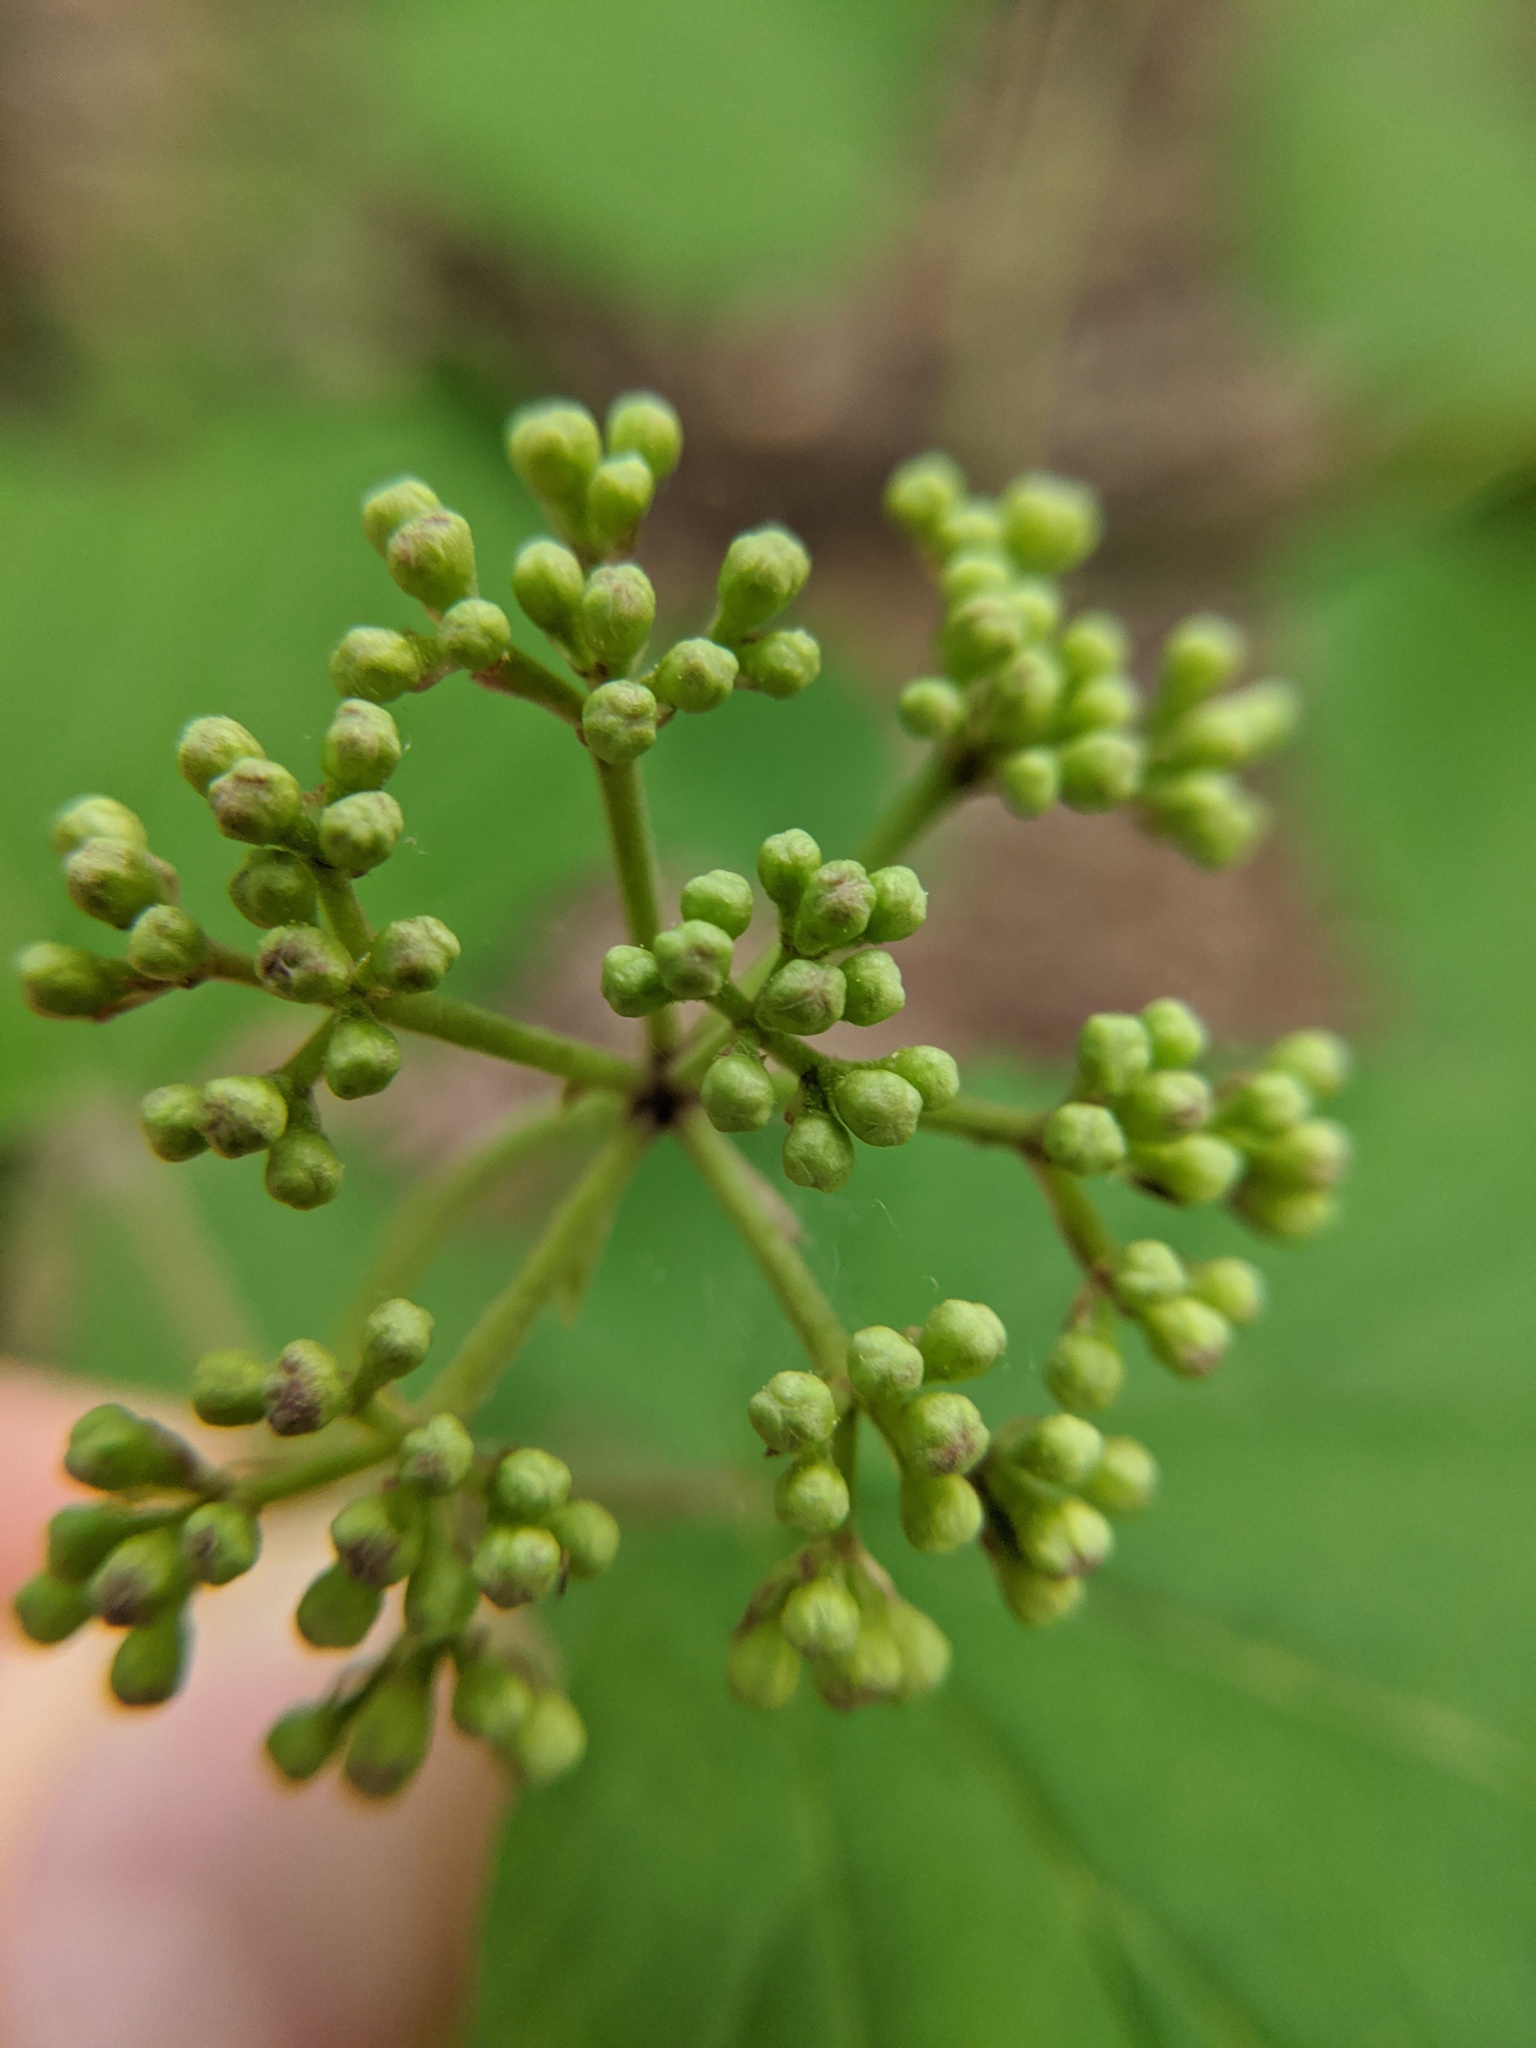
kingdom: Plantae
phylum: Tracheophyta
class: Magnoliopsida
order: Dipsacales
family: Viburnaceae
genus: Viburnum
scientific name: Viburnum acerifolium
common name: Dockmackie
